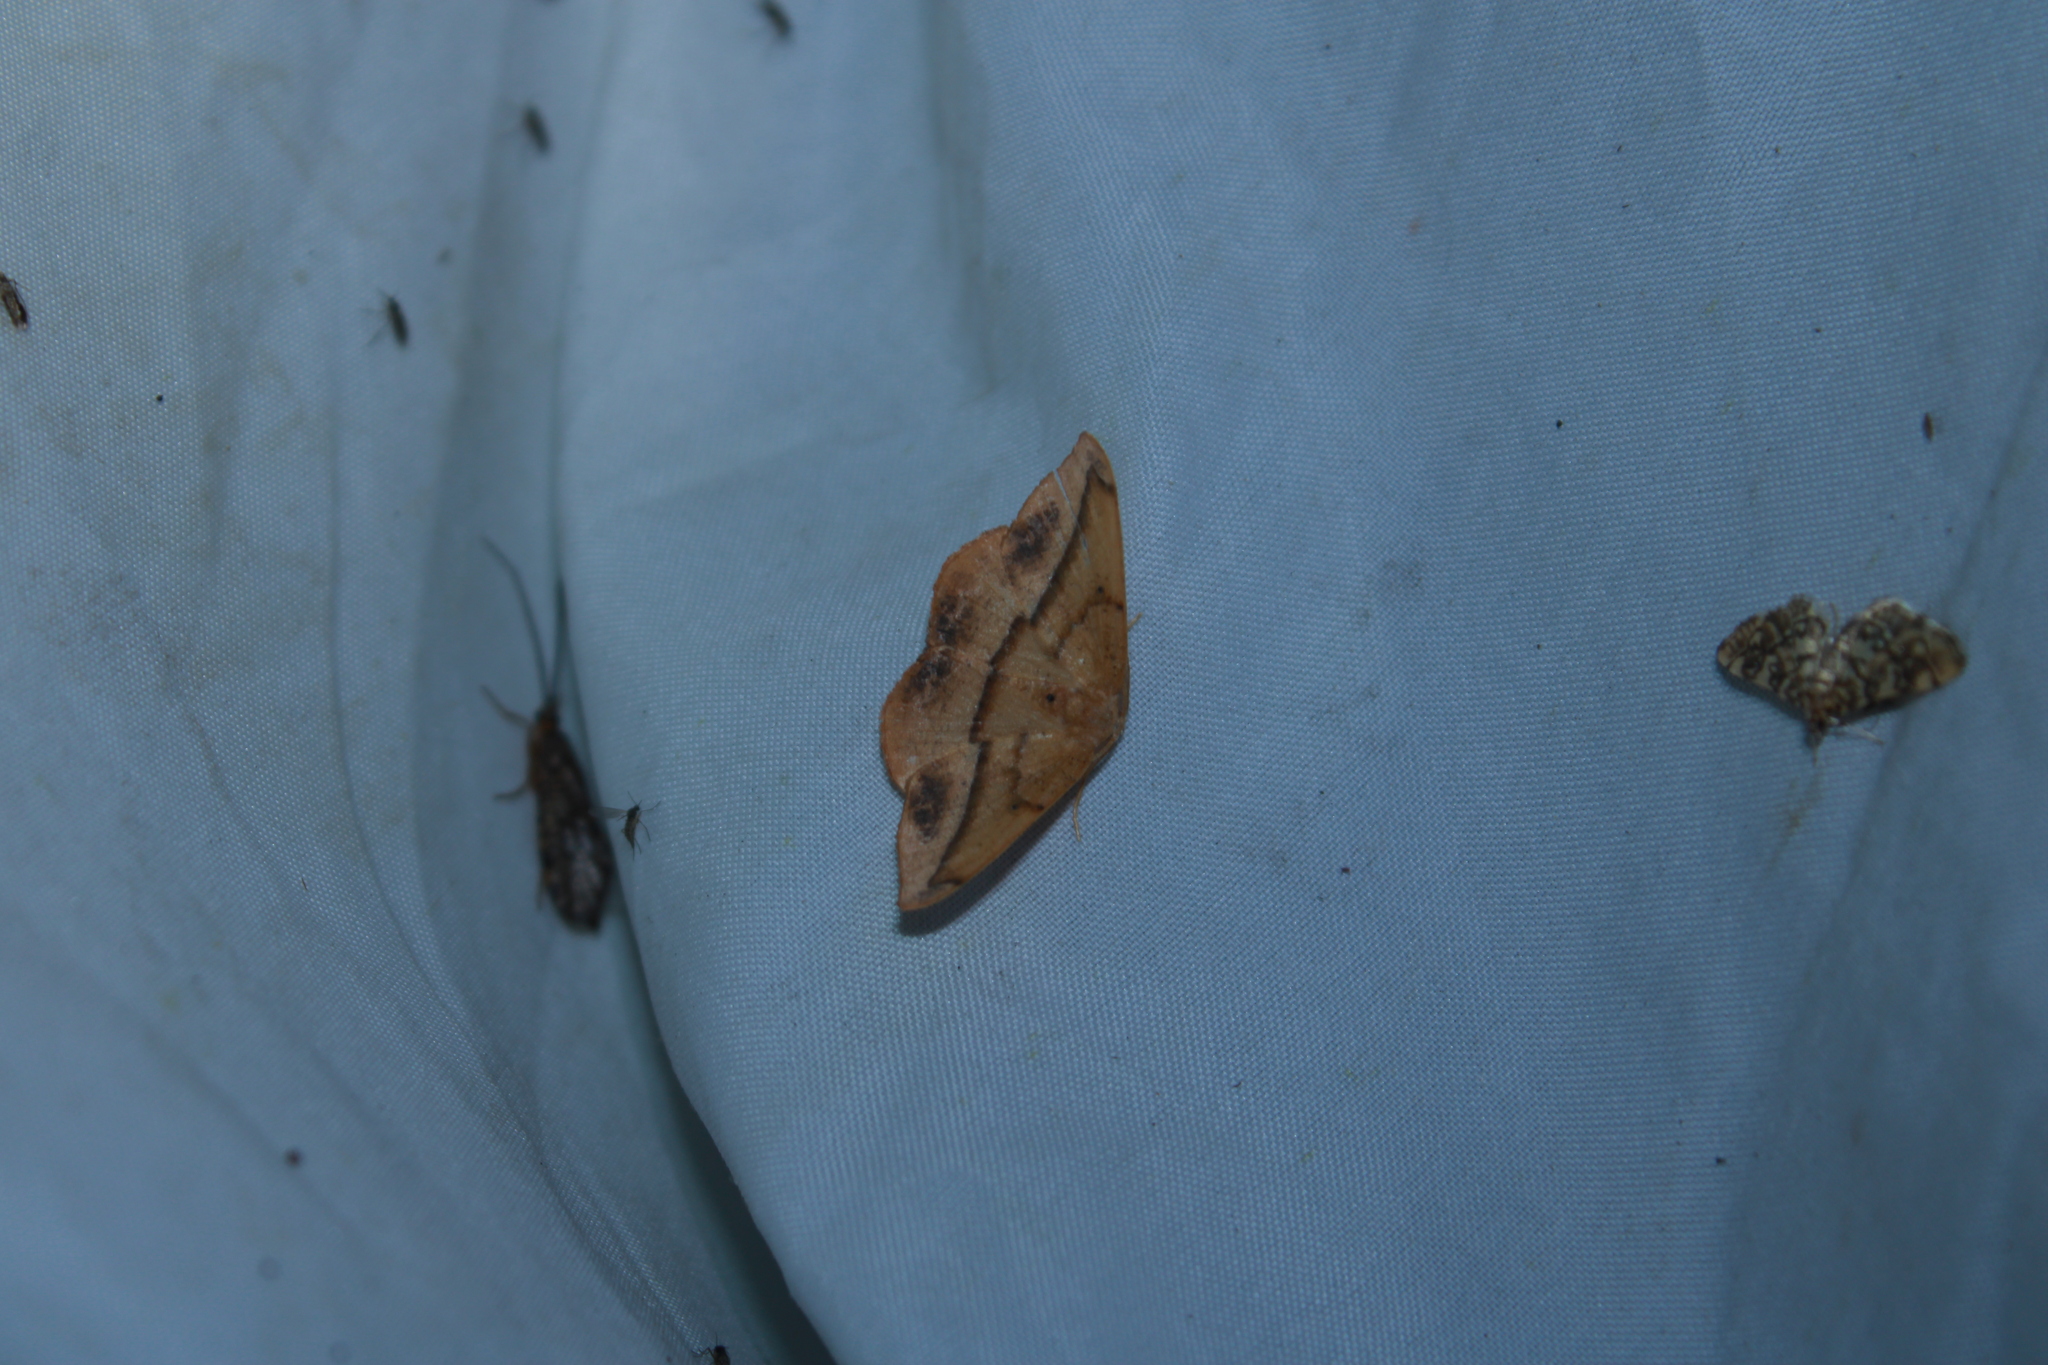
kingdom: Animalia
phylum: Arthropoda
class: Insecta
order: Lepidoptera
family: Geometridae
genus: Patalene
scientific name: Patalene olyzonaria
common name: Juniper geometer moth
